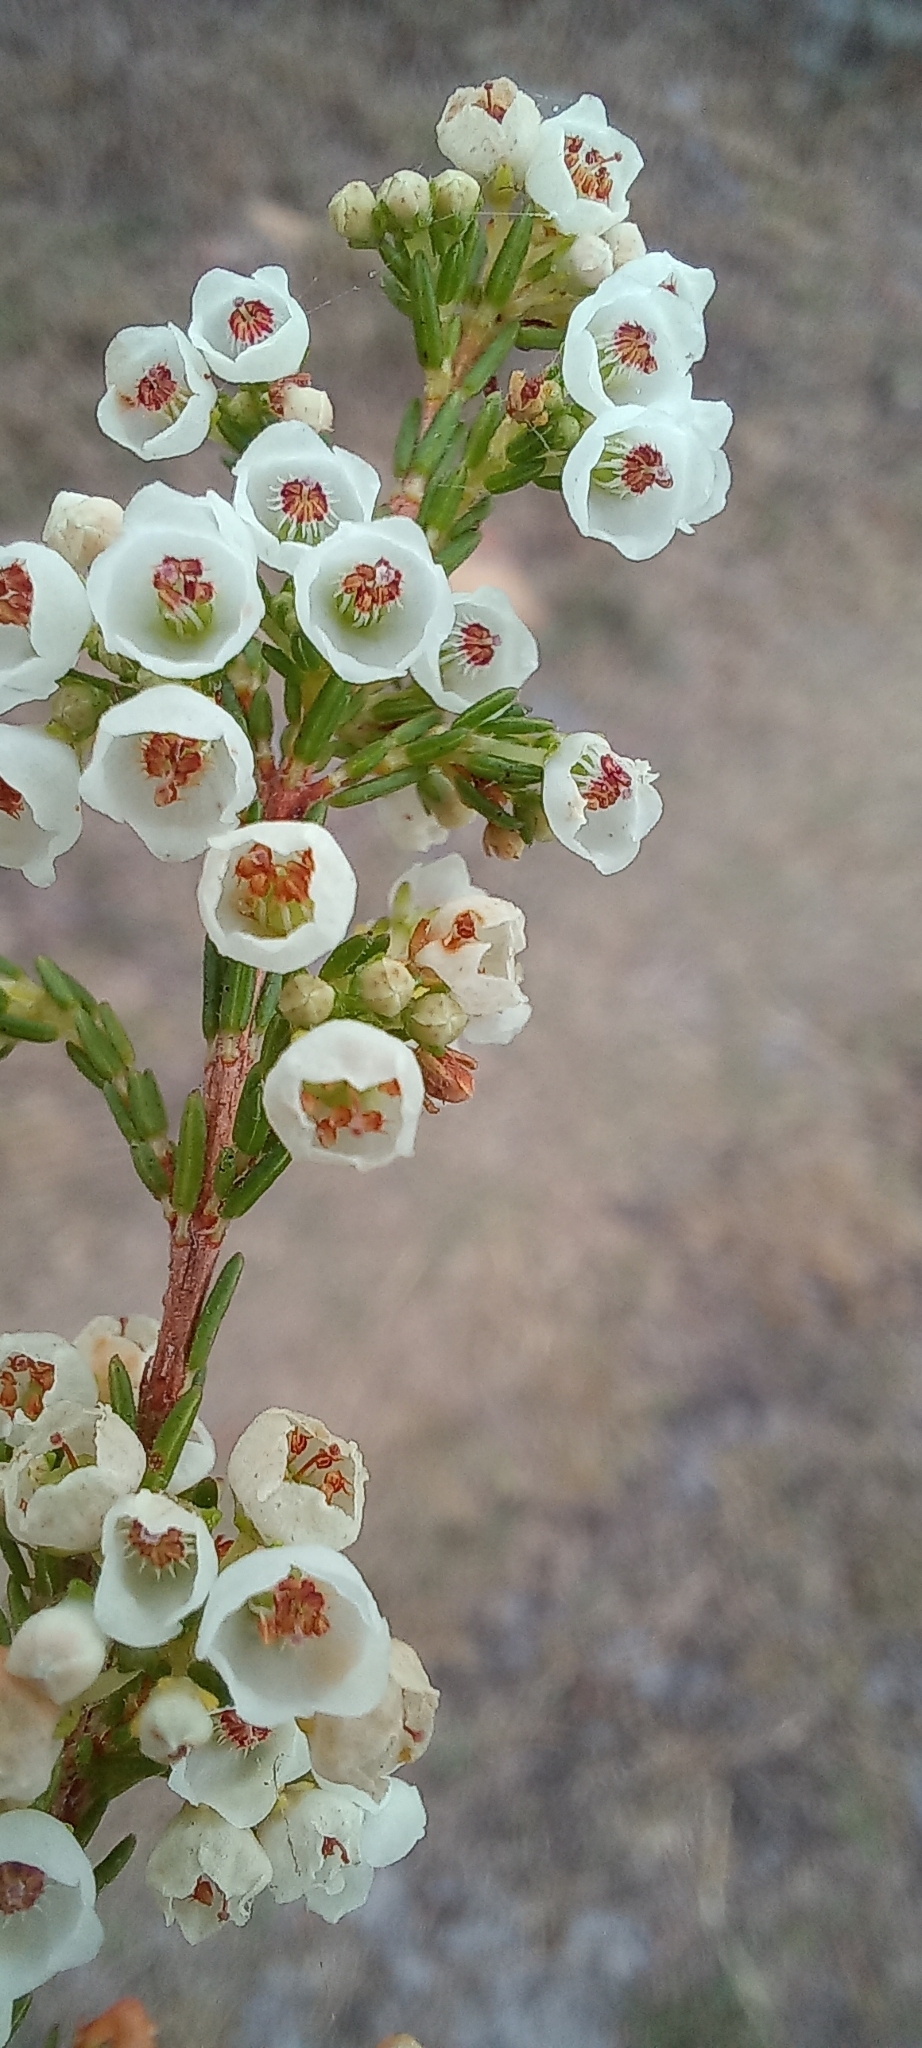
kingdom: Plantae
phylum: Tracheophyta
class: Magnoliopsida
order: Ericales
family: Ericaceae
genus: Erica
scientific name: Erica subdivaricata
